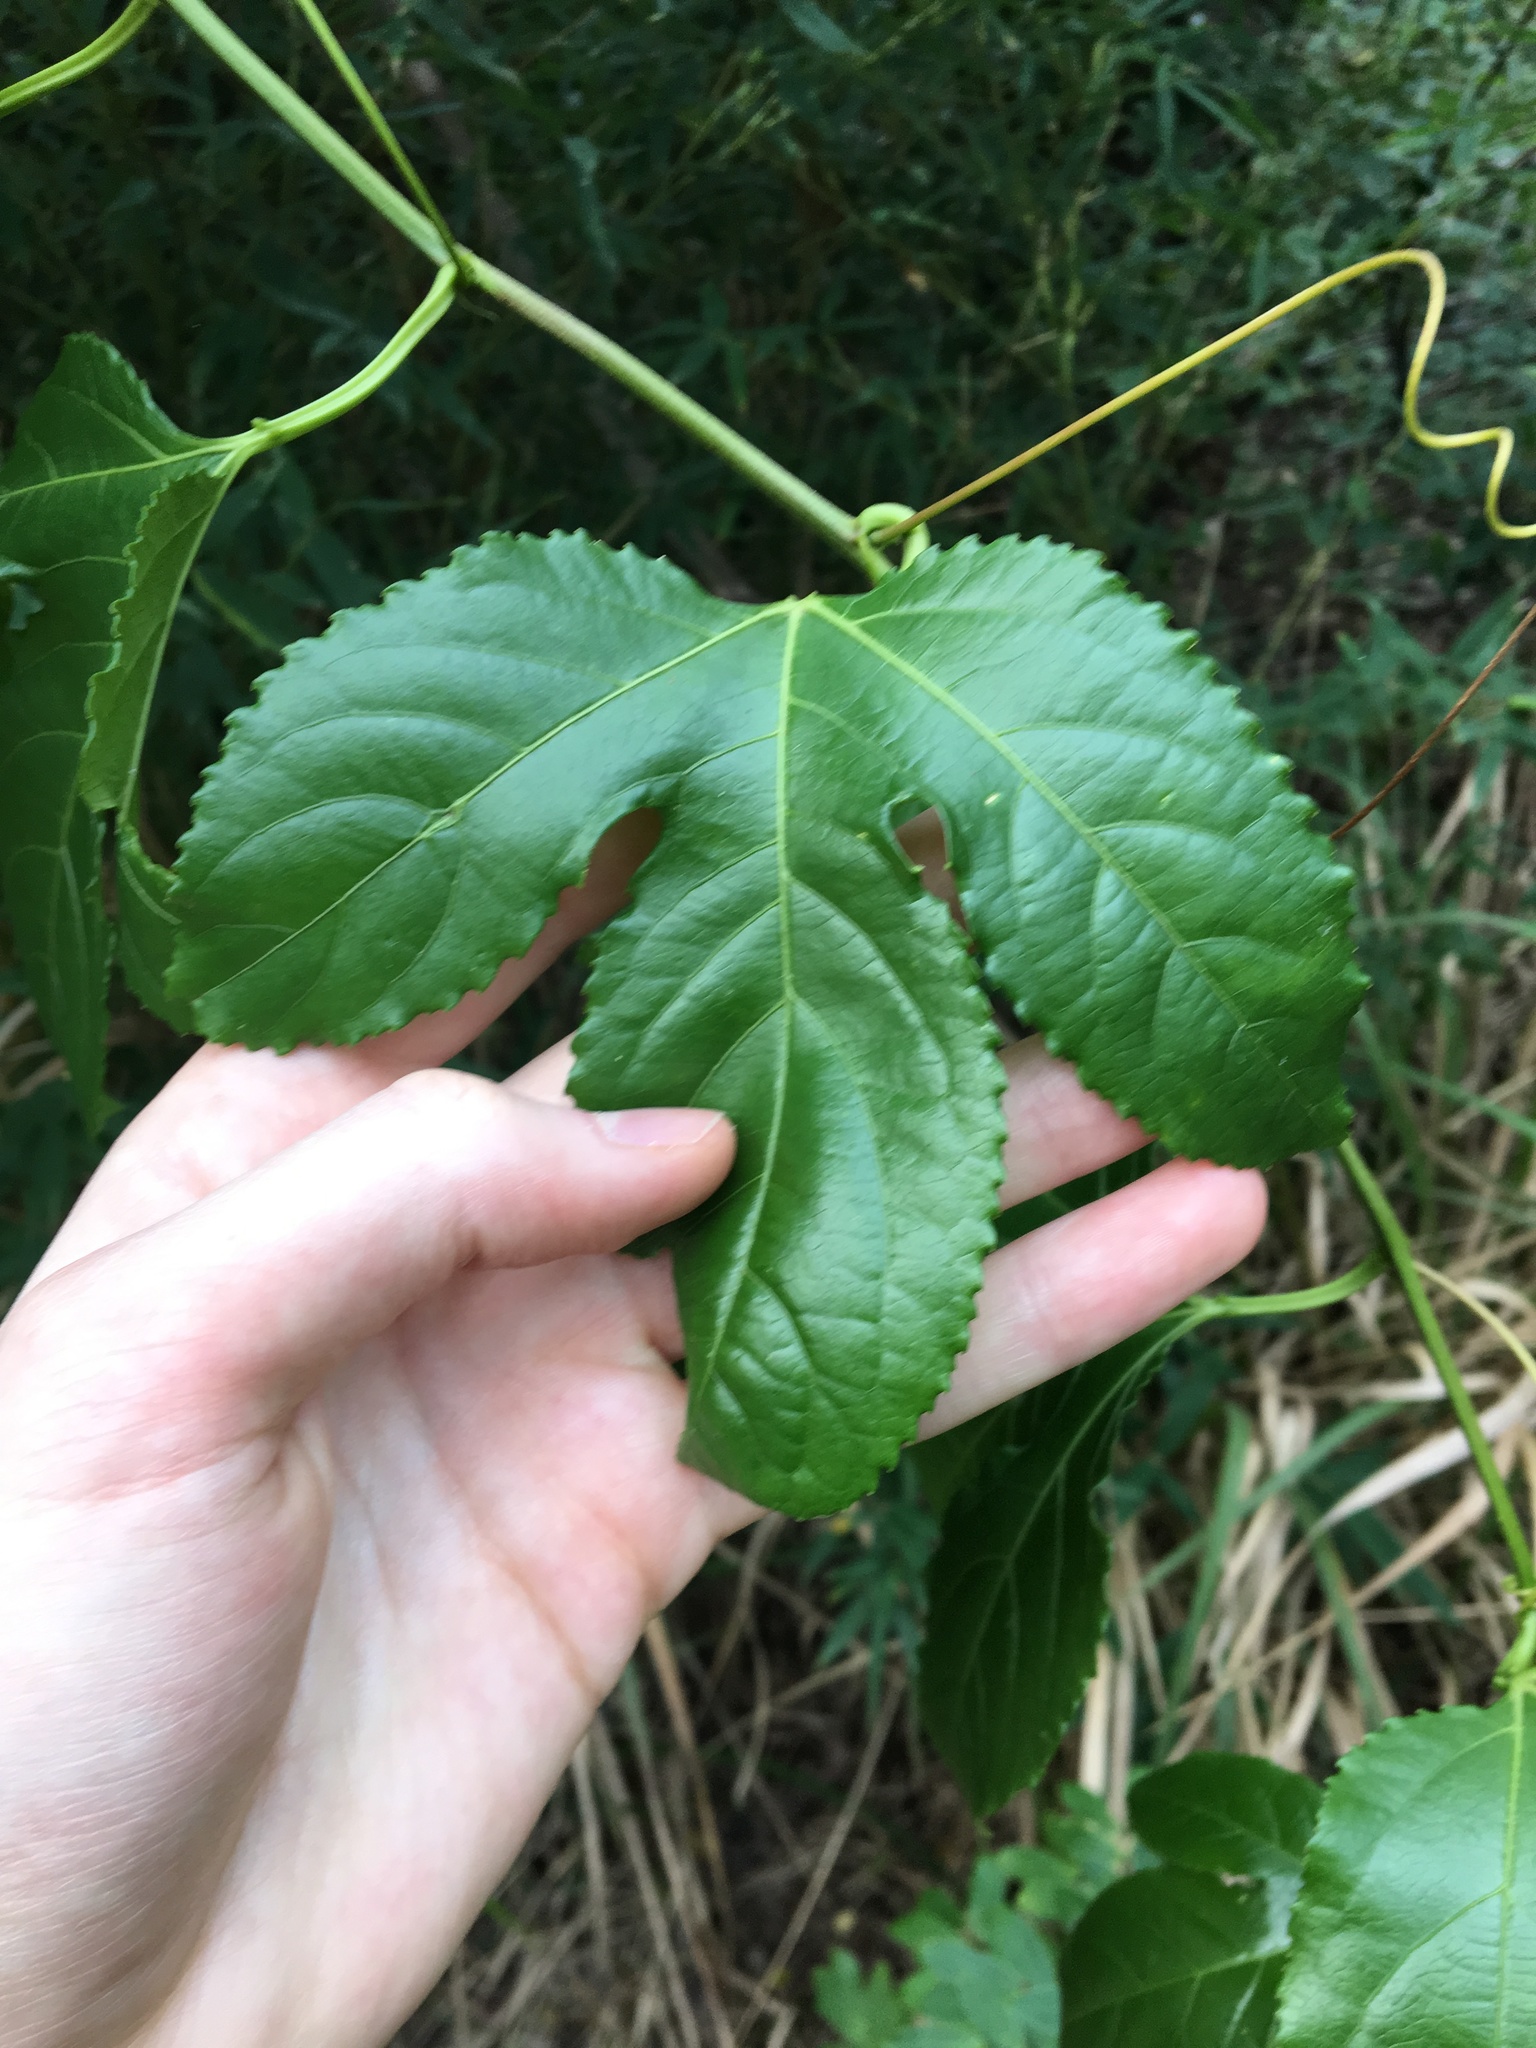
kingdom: Plantae
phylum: Tracheophyta
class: Magnoliopsida
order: Malpighiales
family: Passifloraceae
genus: Passiflora
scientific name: Passiflora edulis
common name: Purple granadilla
